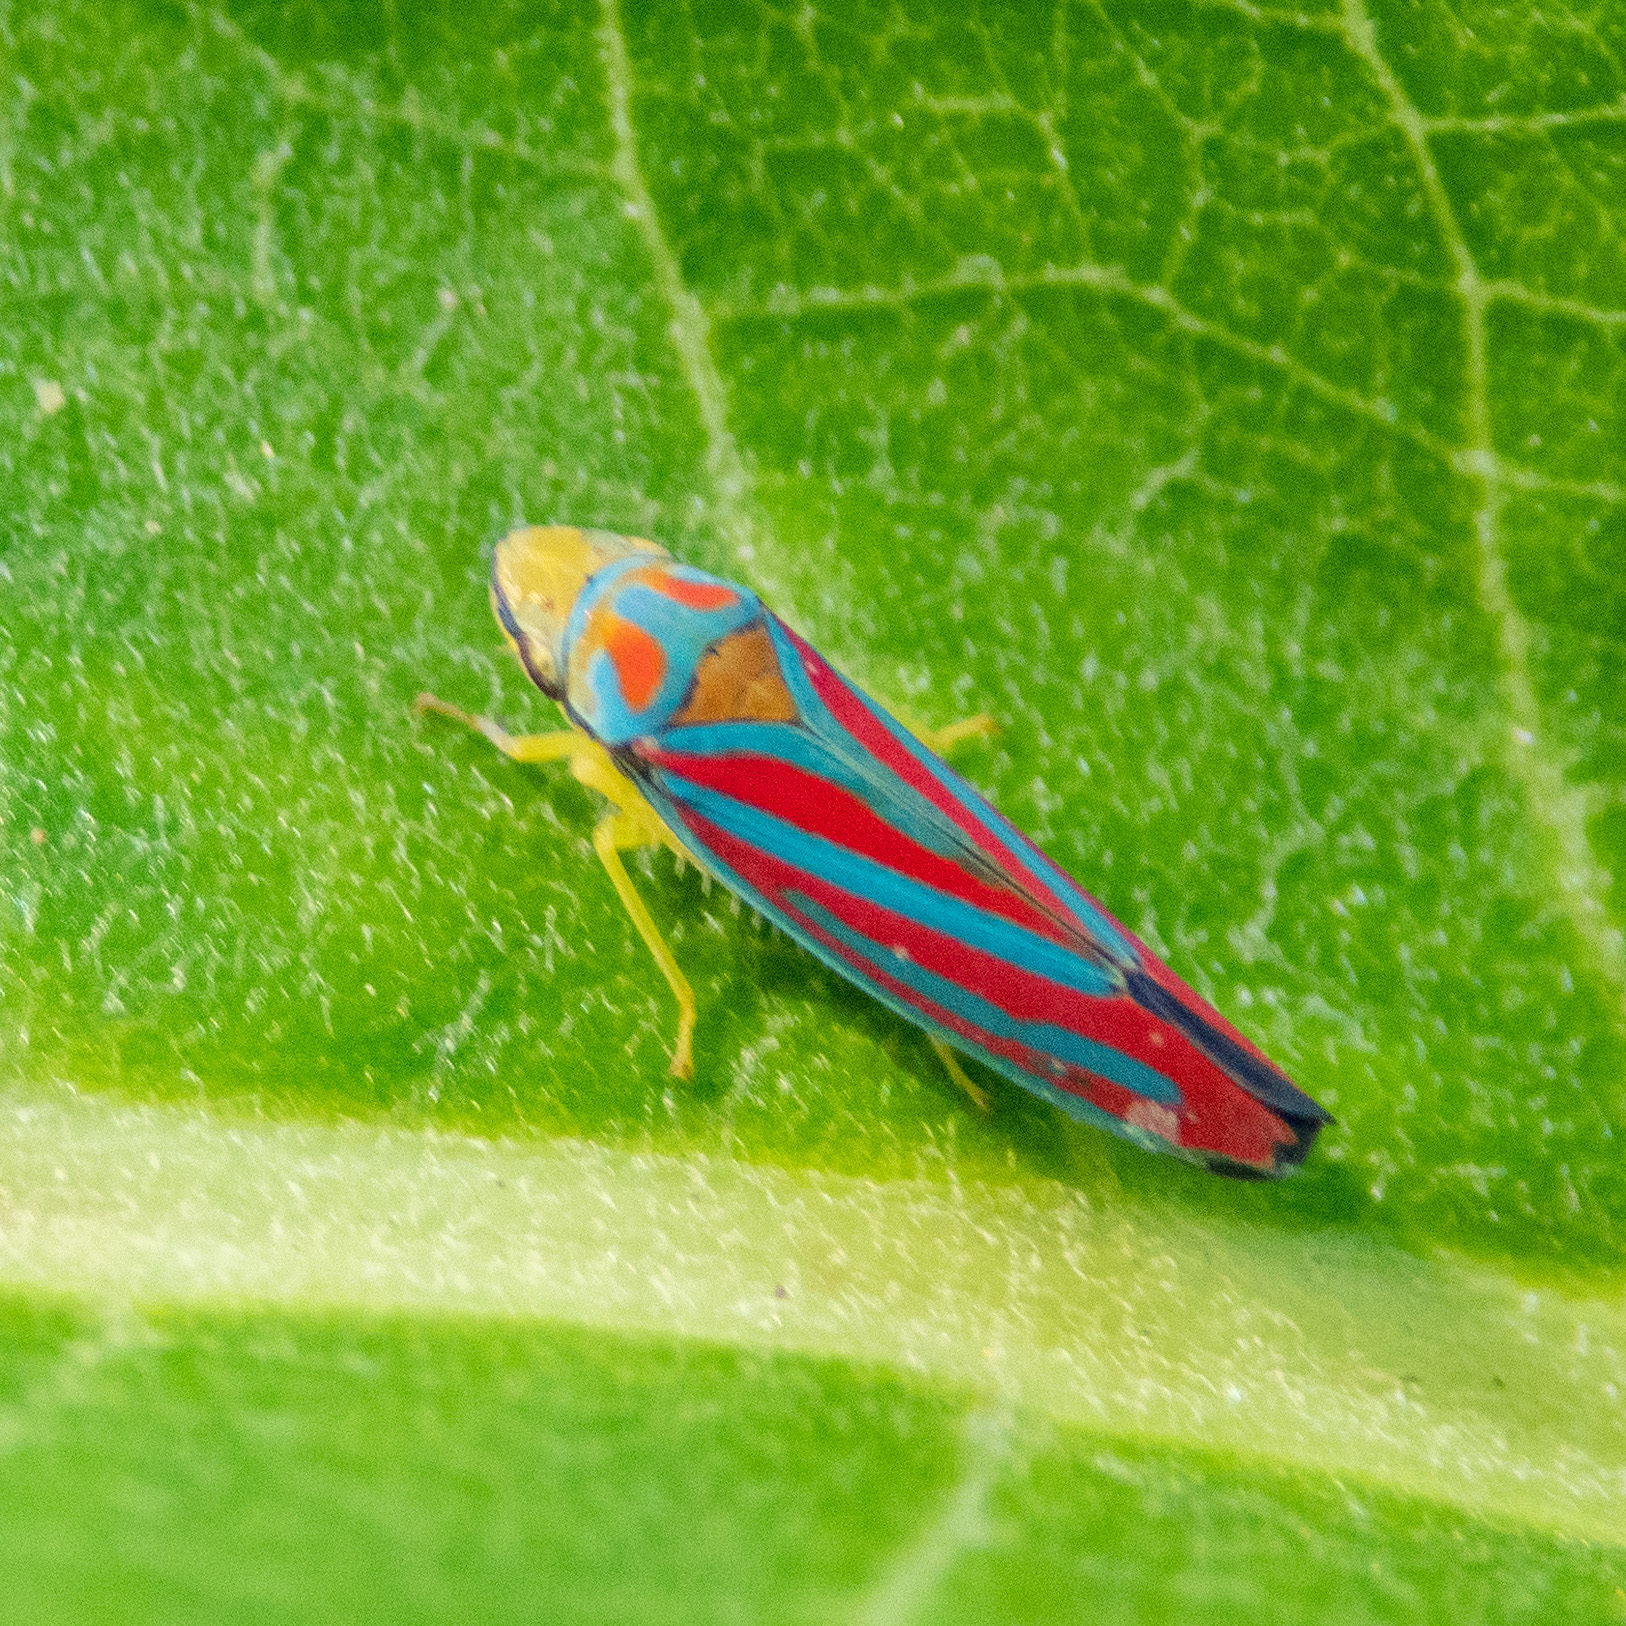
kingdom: Animalia
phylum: Arthropoda
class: Insecta
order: Hemiptera
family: Cicadellidae
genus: Graphocephala
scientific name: Graphocephala coccinea
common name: Candy-striped leafhopper
